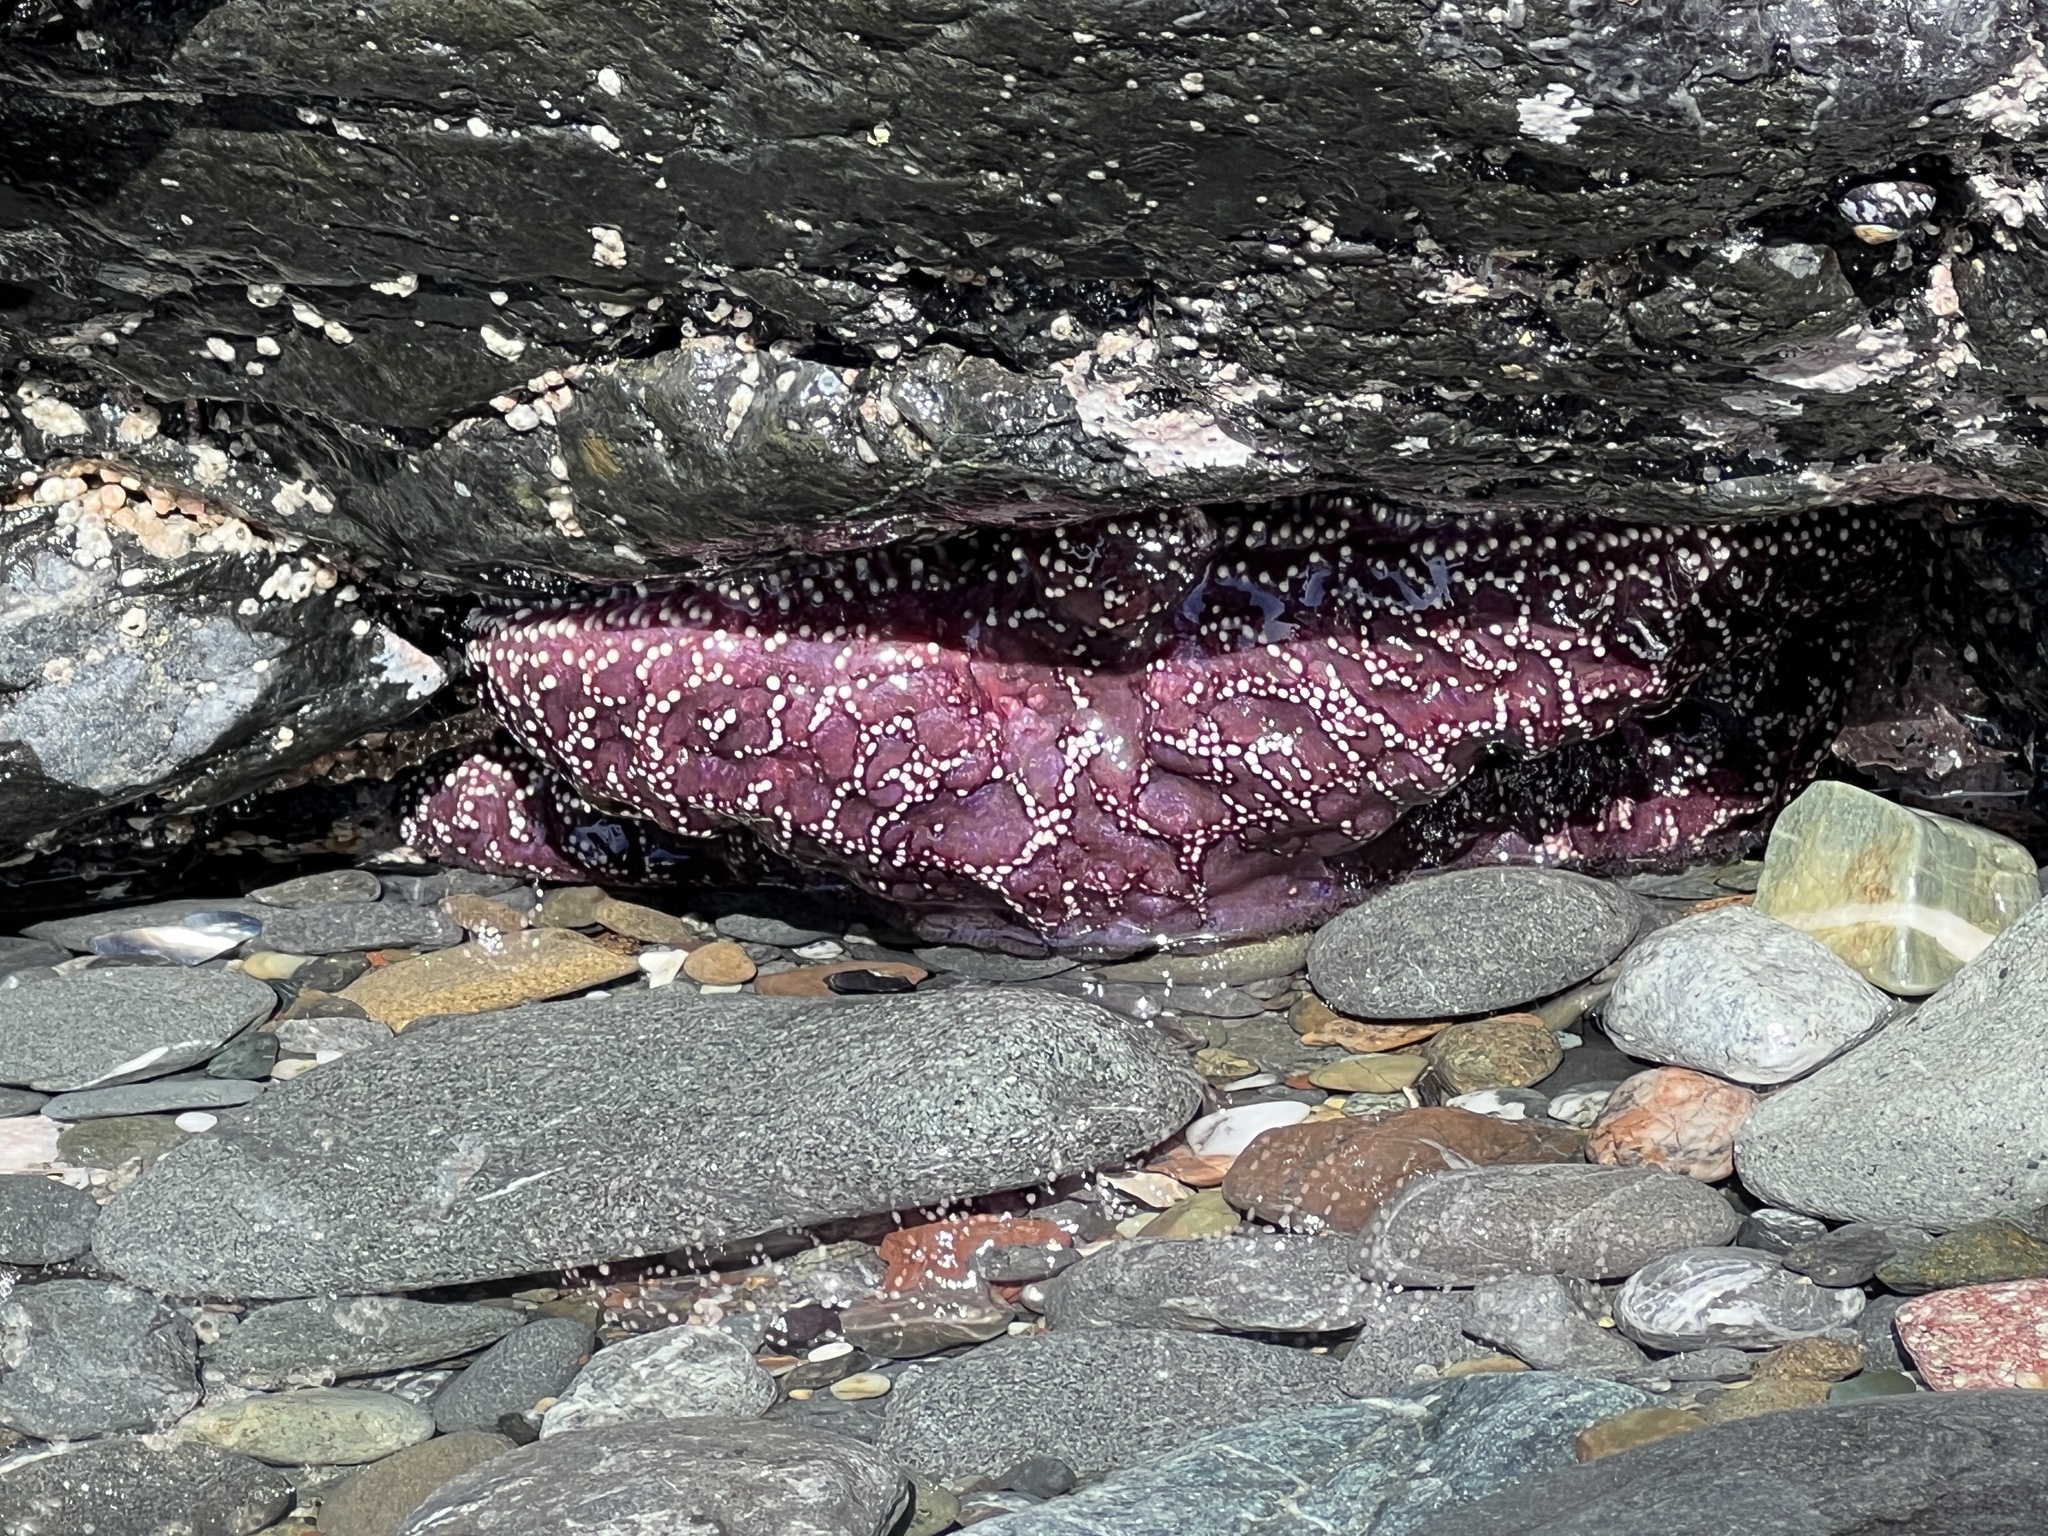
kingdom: Animalia
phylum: Echinodermata
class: Asteroidea
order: Forcipulatida
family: Asteriidae
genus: Pisaster
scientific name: Pisaster ochraceus
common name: Ochre stars
